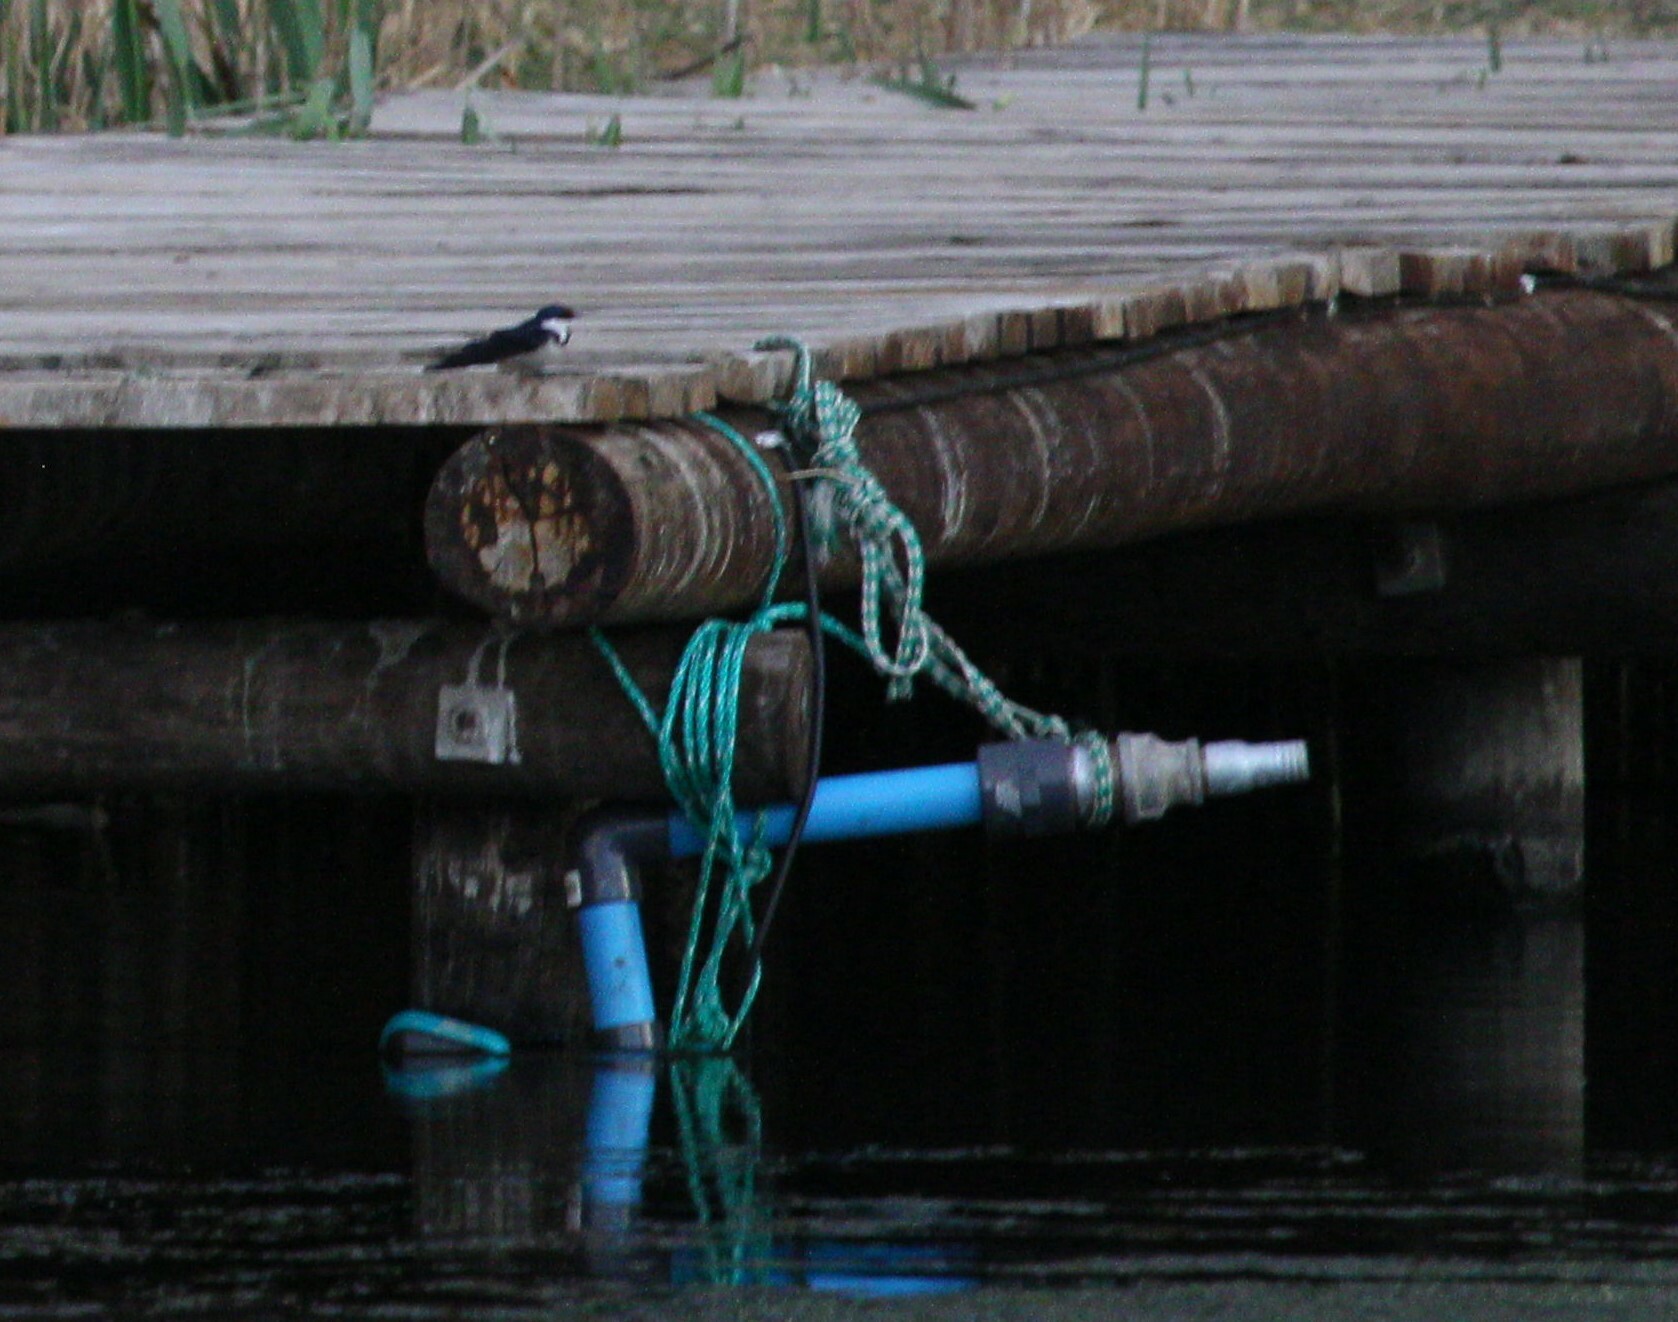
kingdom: Animalia
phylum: Chordata
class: Aves
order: Passeriformes
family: Hirundinidae
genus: Hirundo
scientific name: Hirundo albigularis
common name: White-throated swallow
